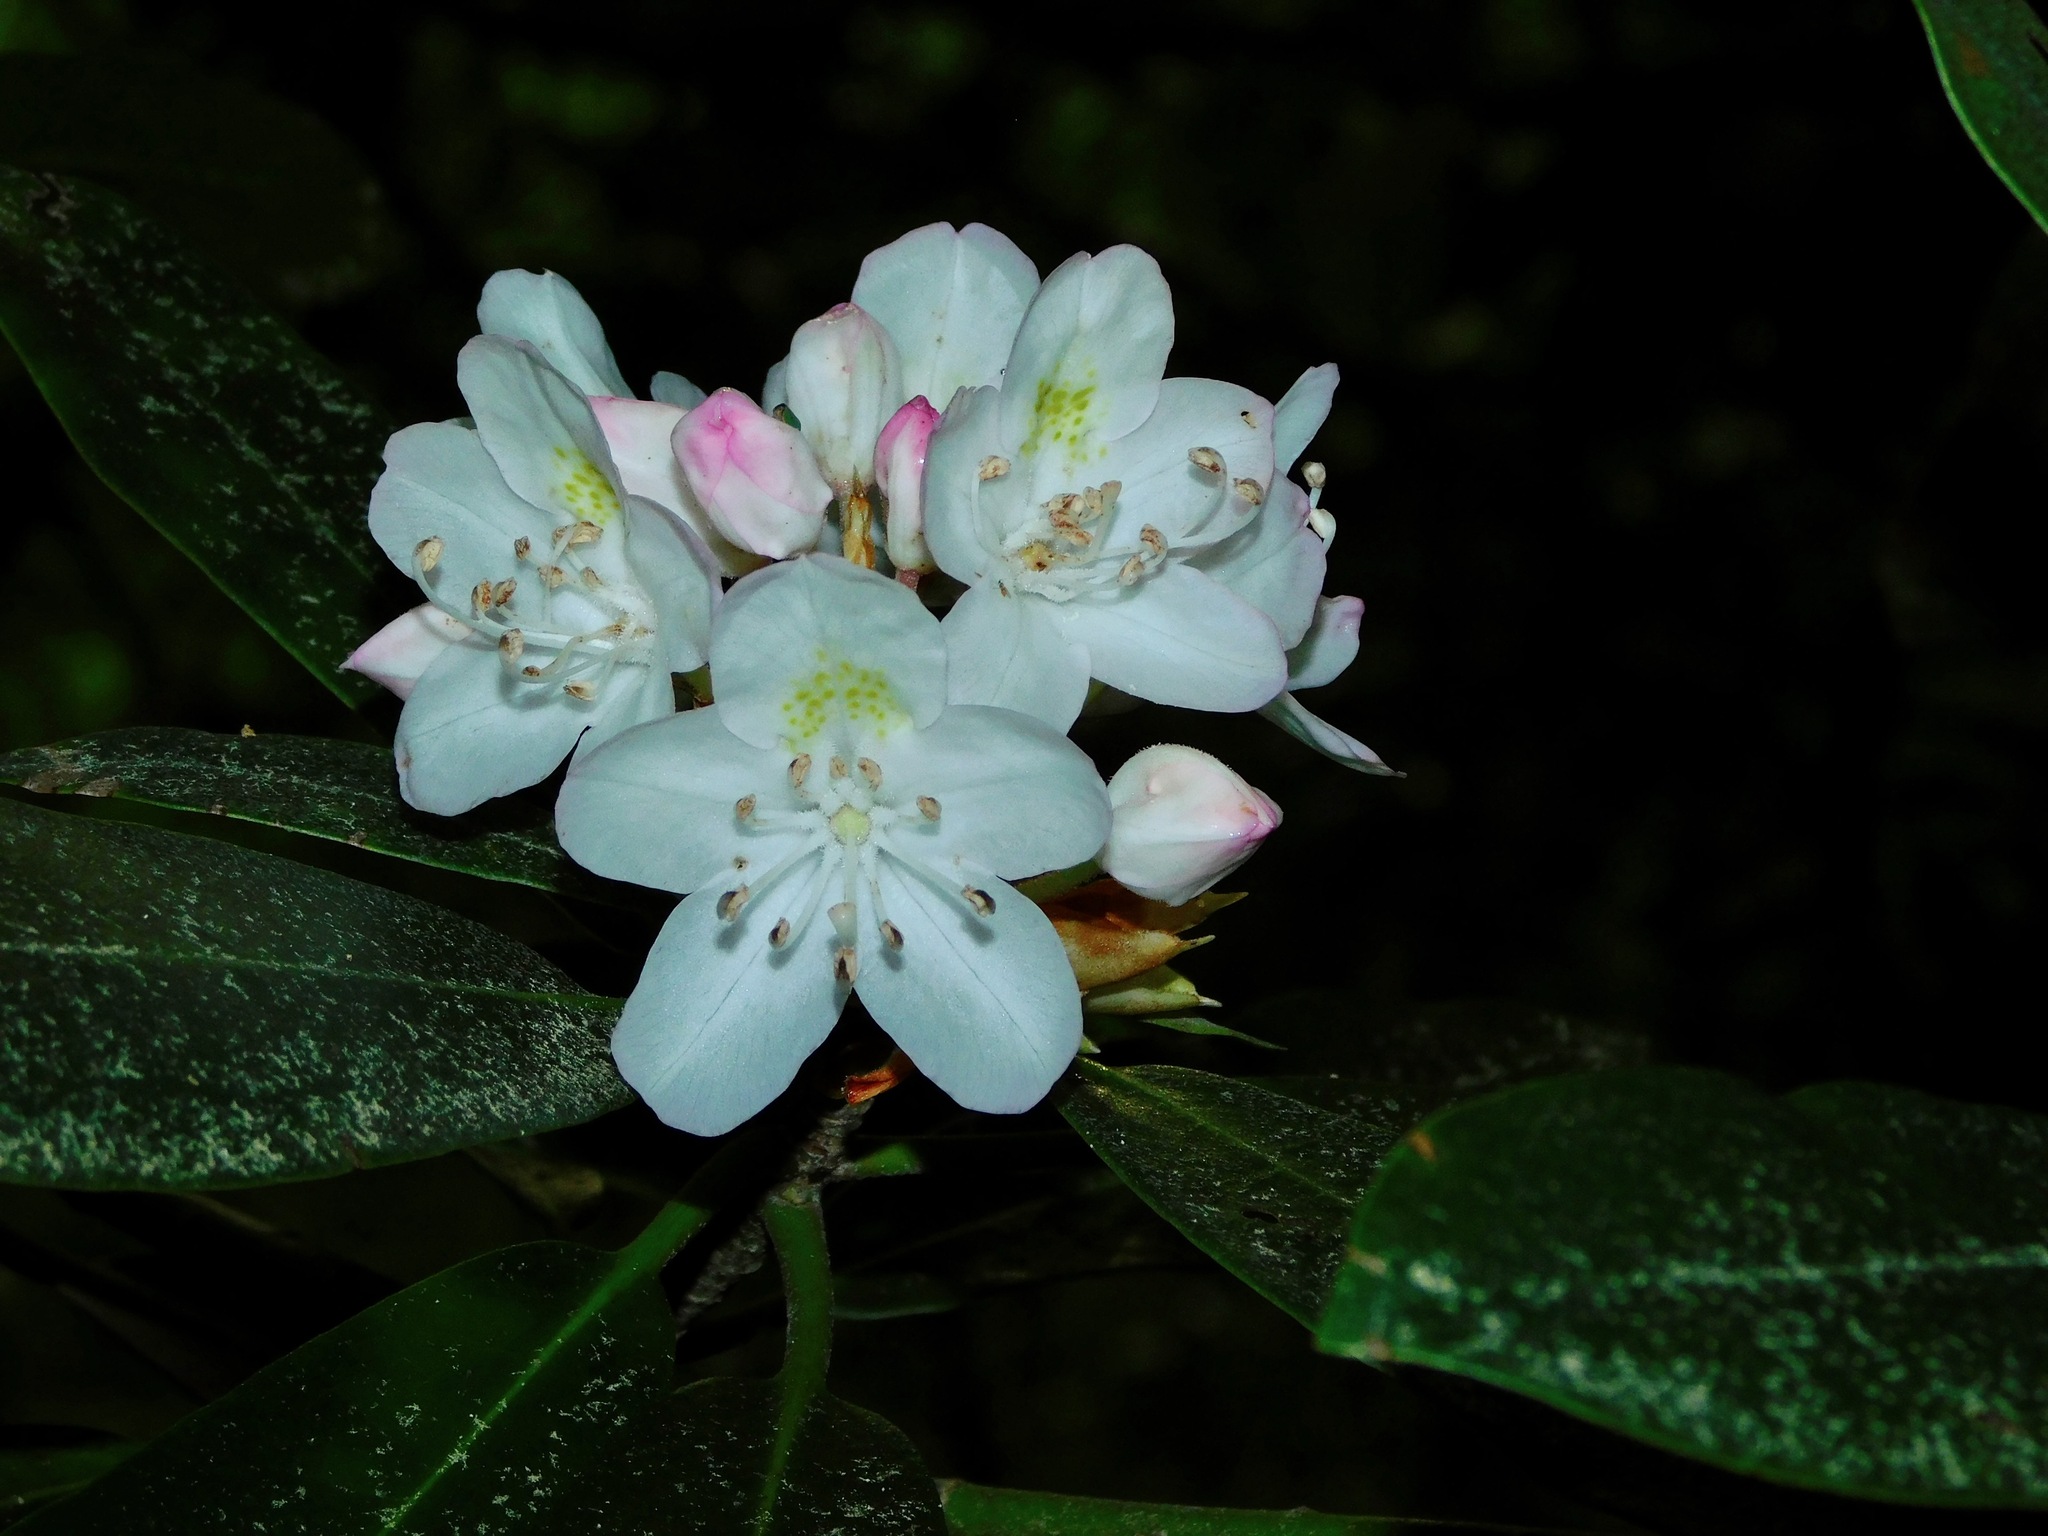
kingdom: Plantae
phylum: Tracheophyta
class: Magnoliopsida
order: Ericales
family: Ericaceae
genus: Rhododendron
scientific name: Rhododendron maximum
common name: Great rhododendron
